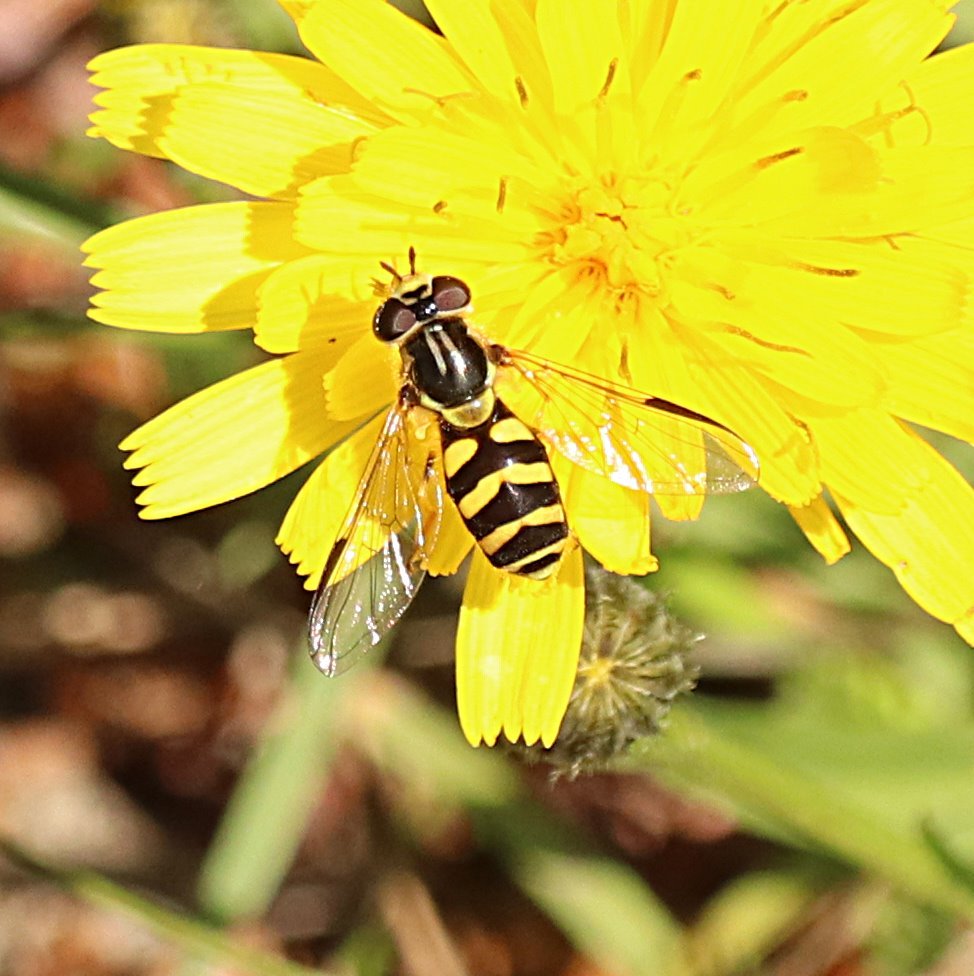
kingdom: Animalia
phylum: Arthropoda
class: Insecta
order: Diptera
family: Syrphidae
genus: Dasysyrphus
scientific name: Dasysyrphus albostriatus
